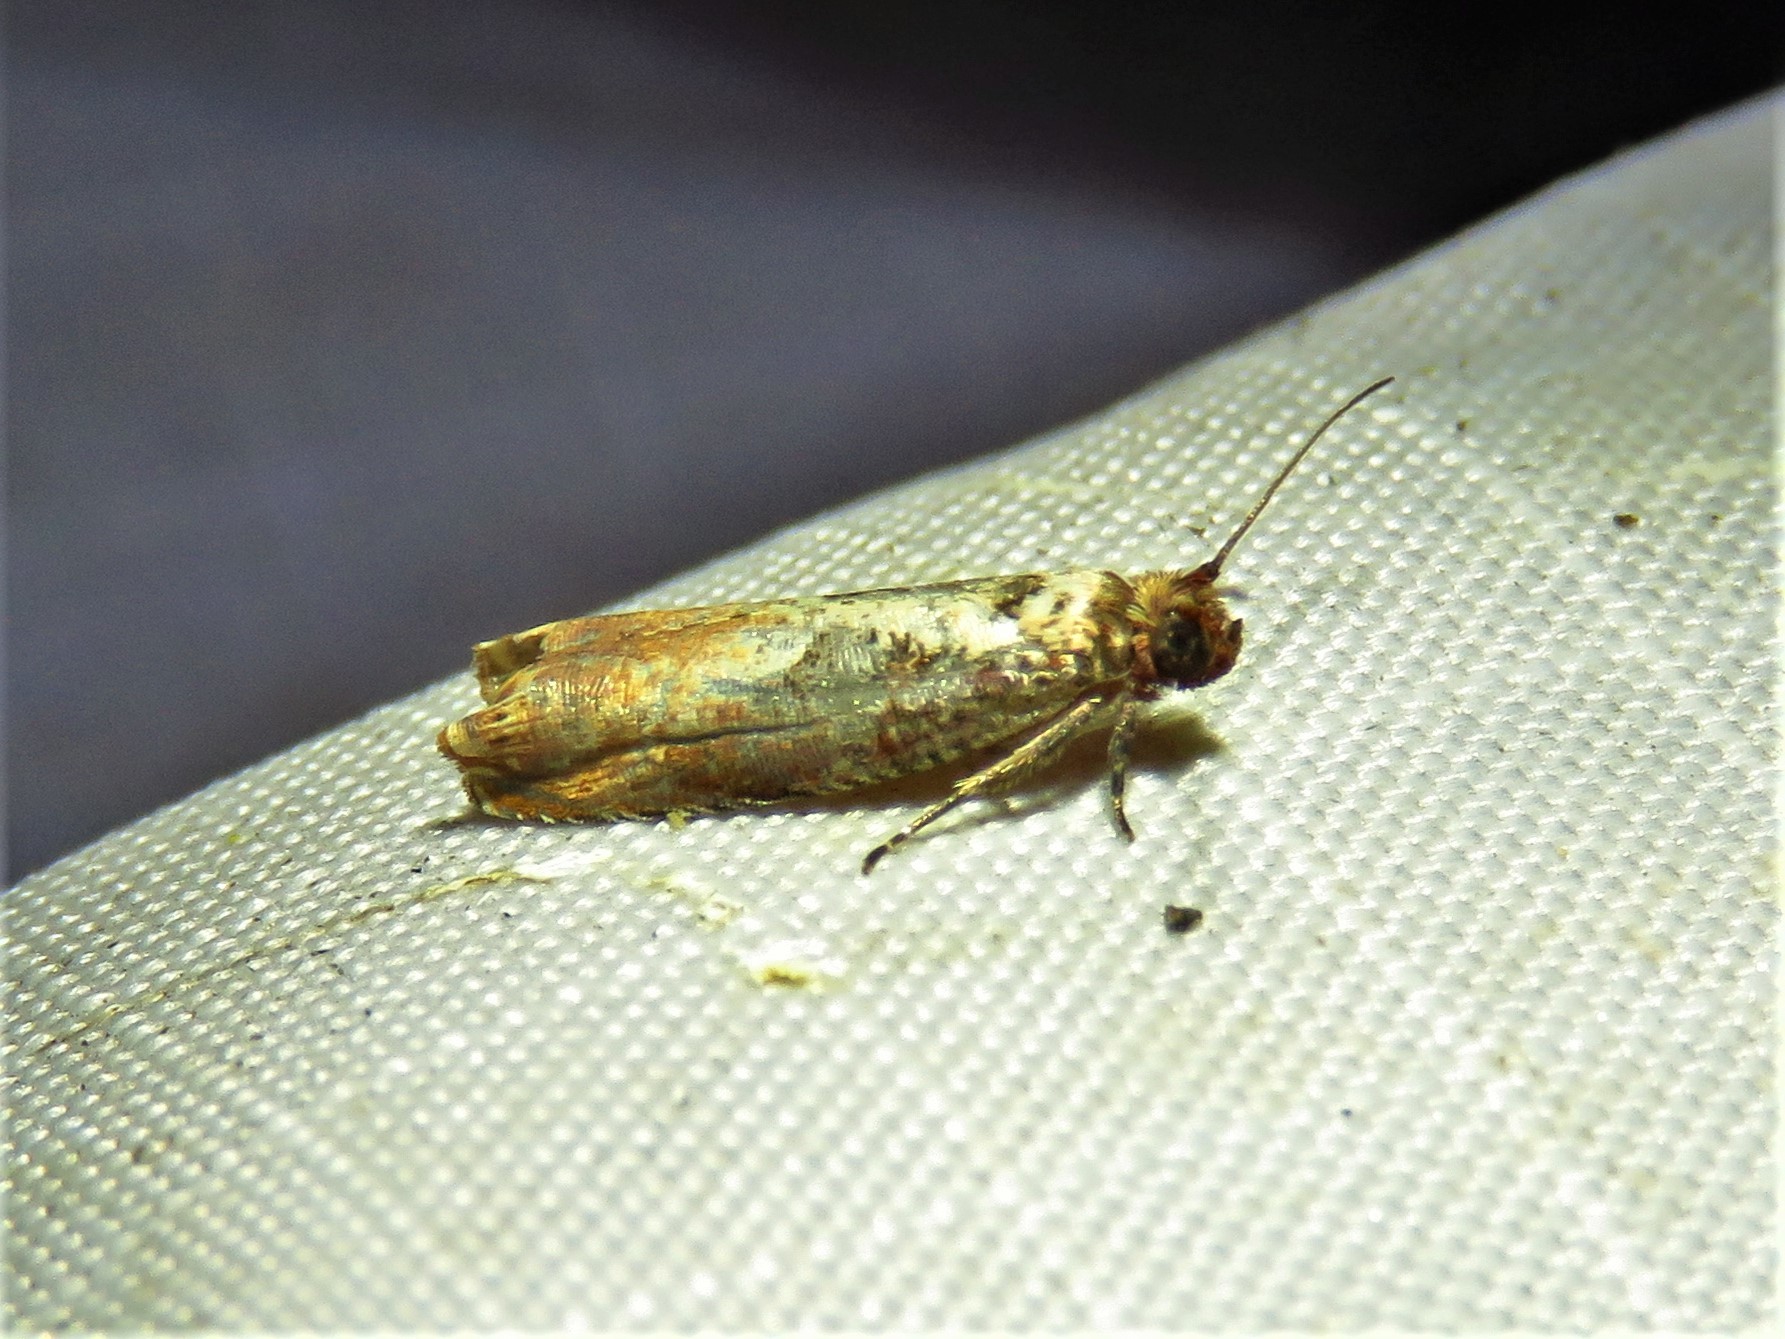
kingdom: Animalia
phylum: Arthropoda
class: Insecta
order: Lepidoptera
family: Tortricidae
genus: Episimus
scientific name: Episimus tyrius
